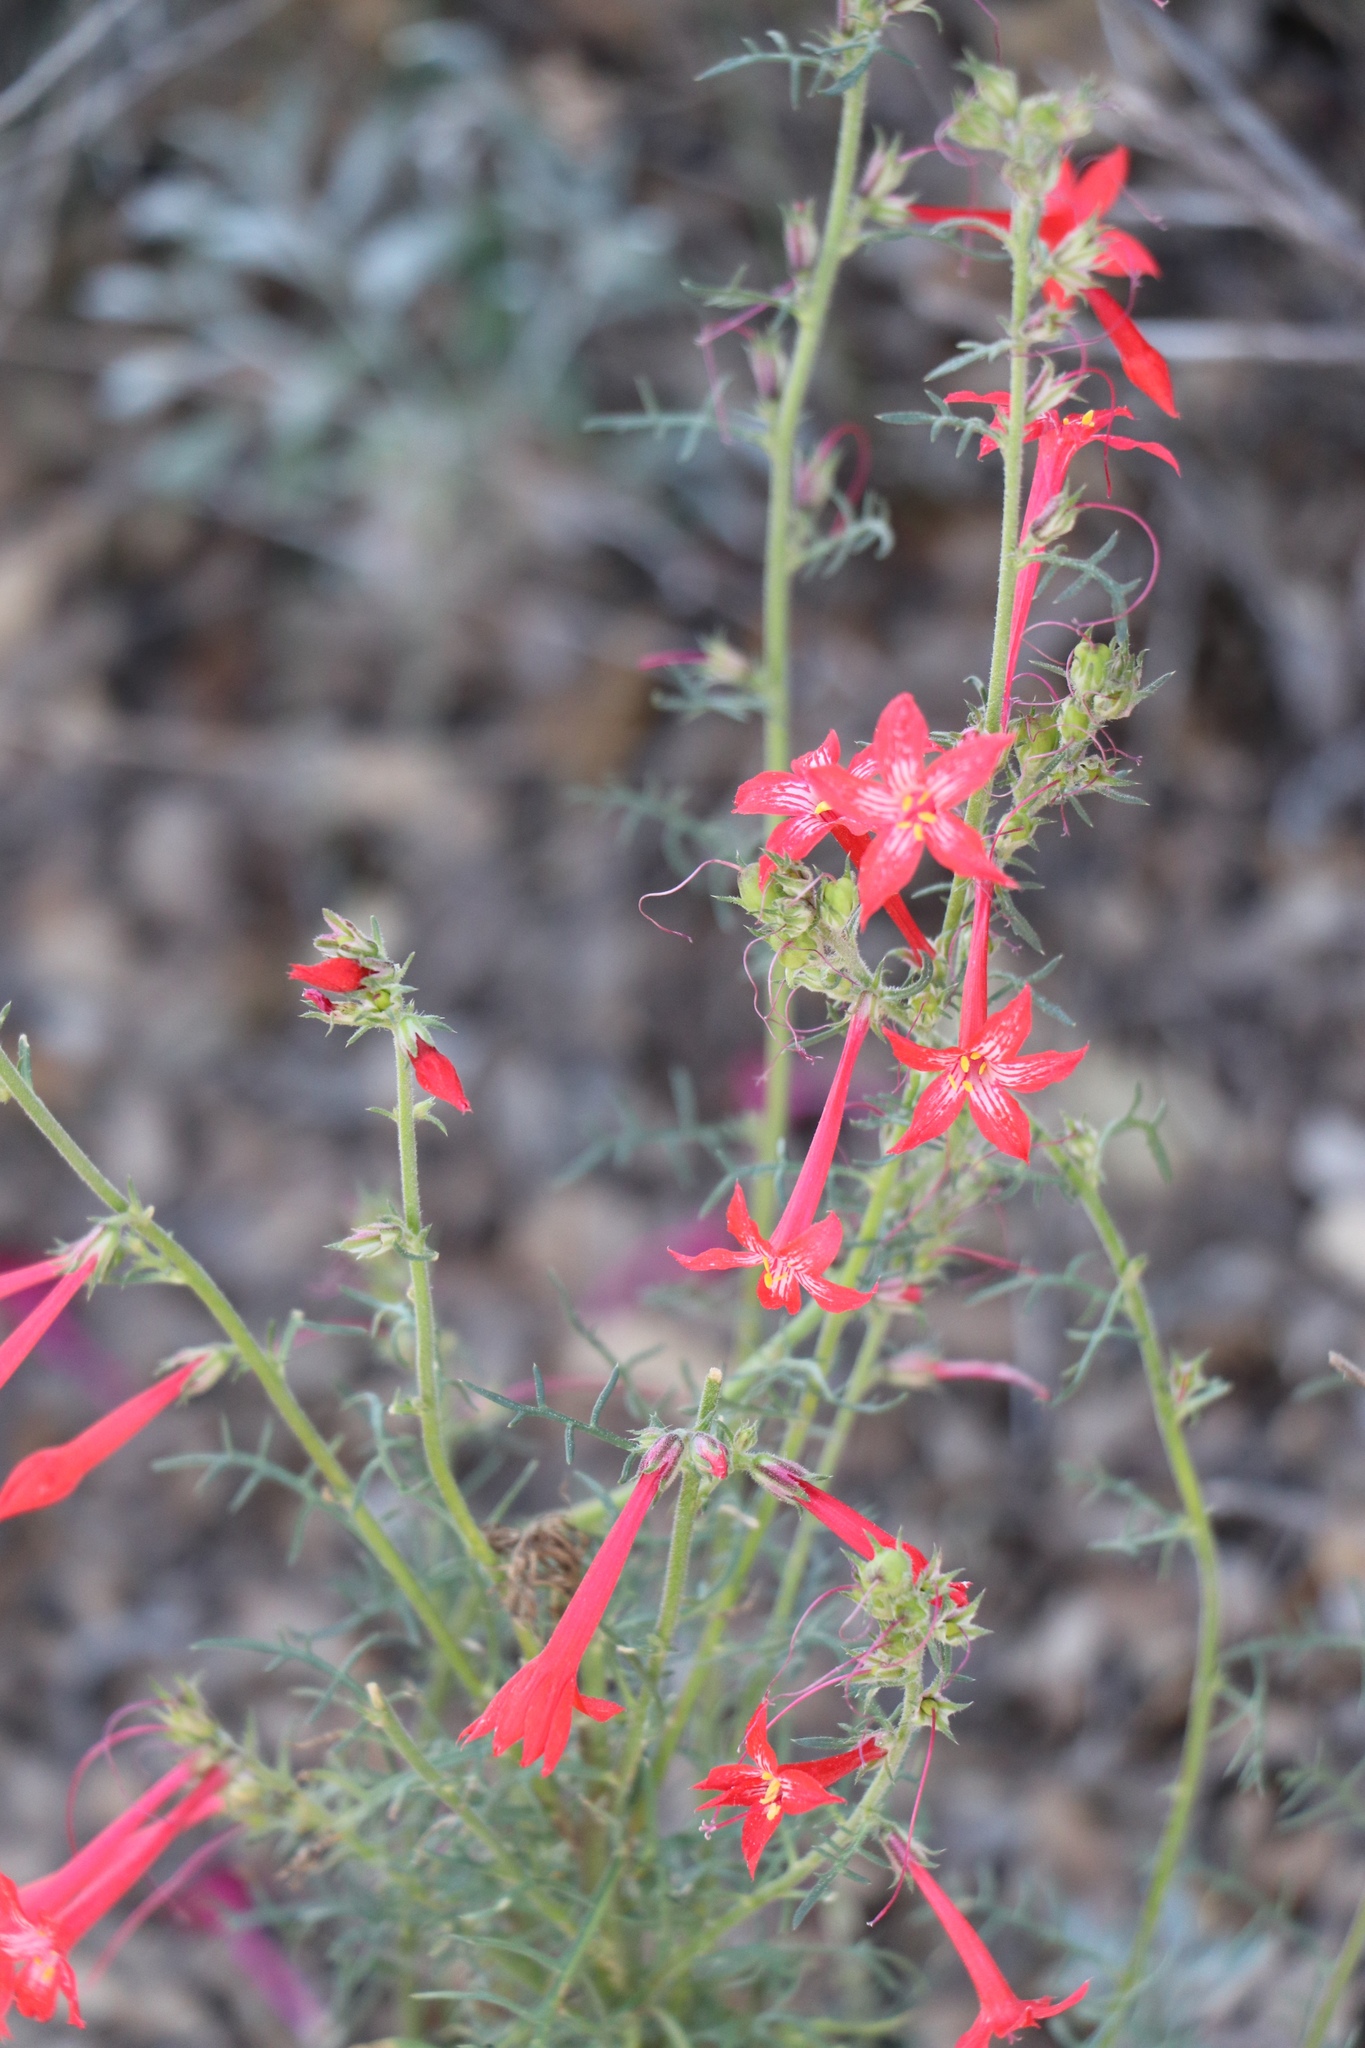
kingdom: Plantae
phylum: Tracheophyta
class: Magnoliopsida
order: Ericales
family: Polemoniaceae
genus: Ipomopsis
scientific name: Ipomopsis aggregata
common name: Scarlet gilia
